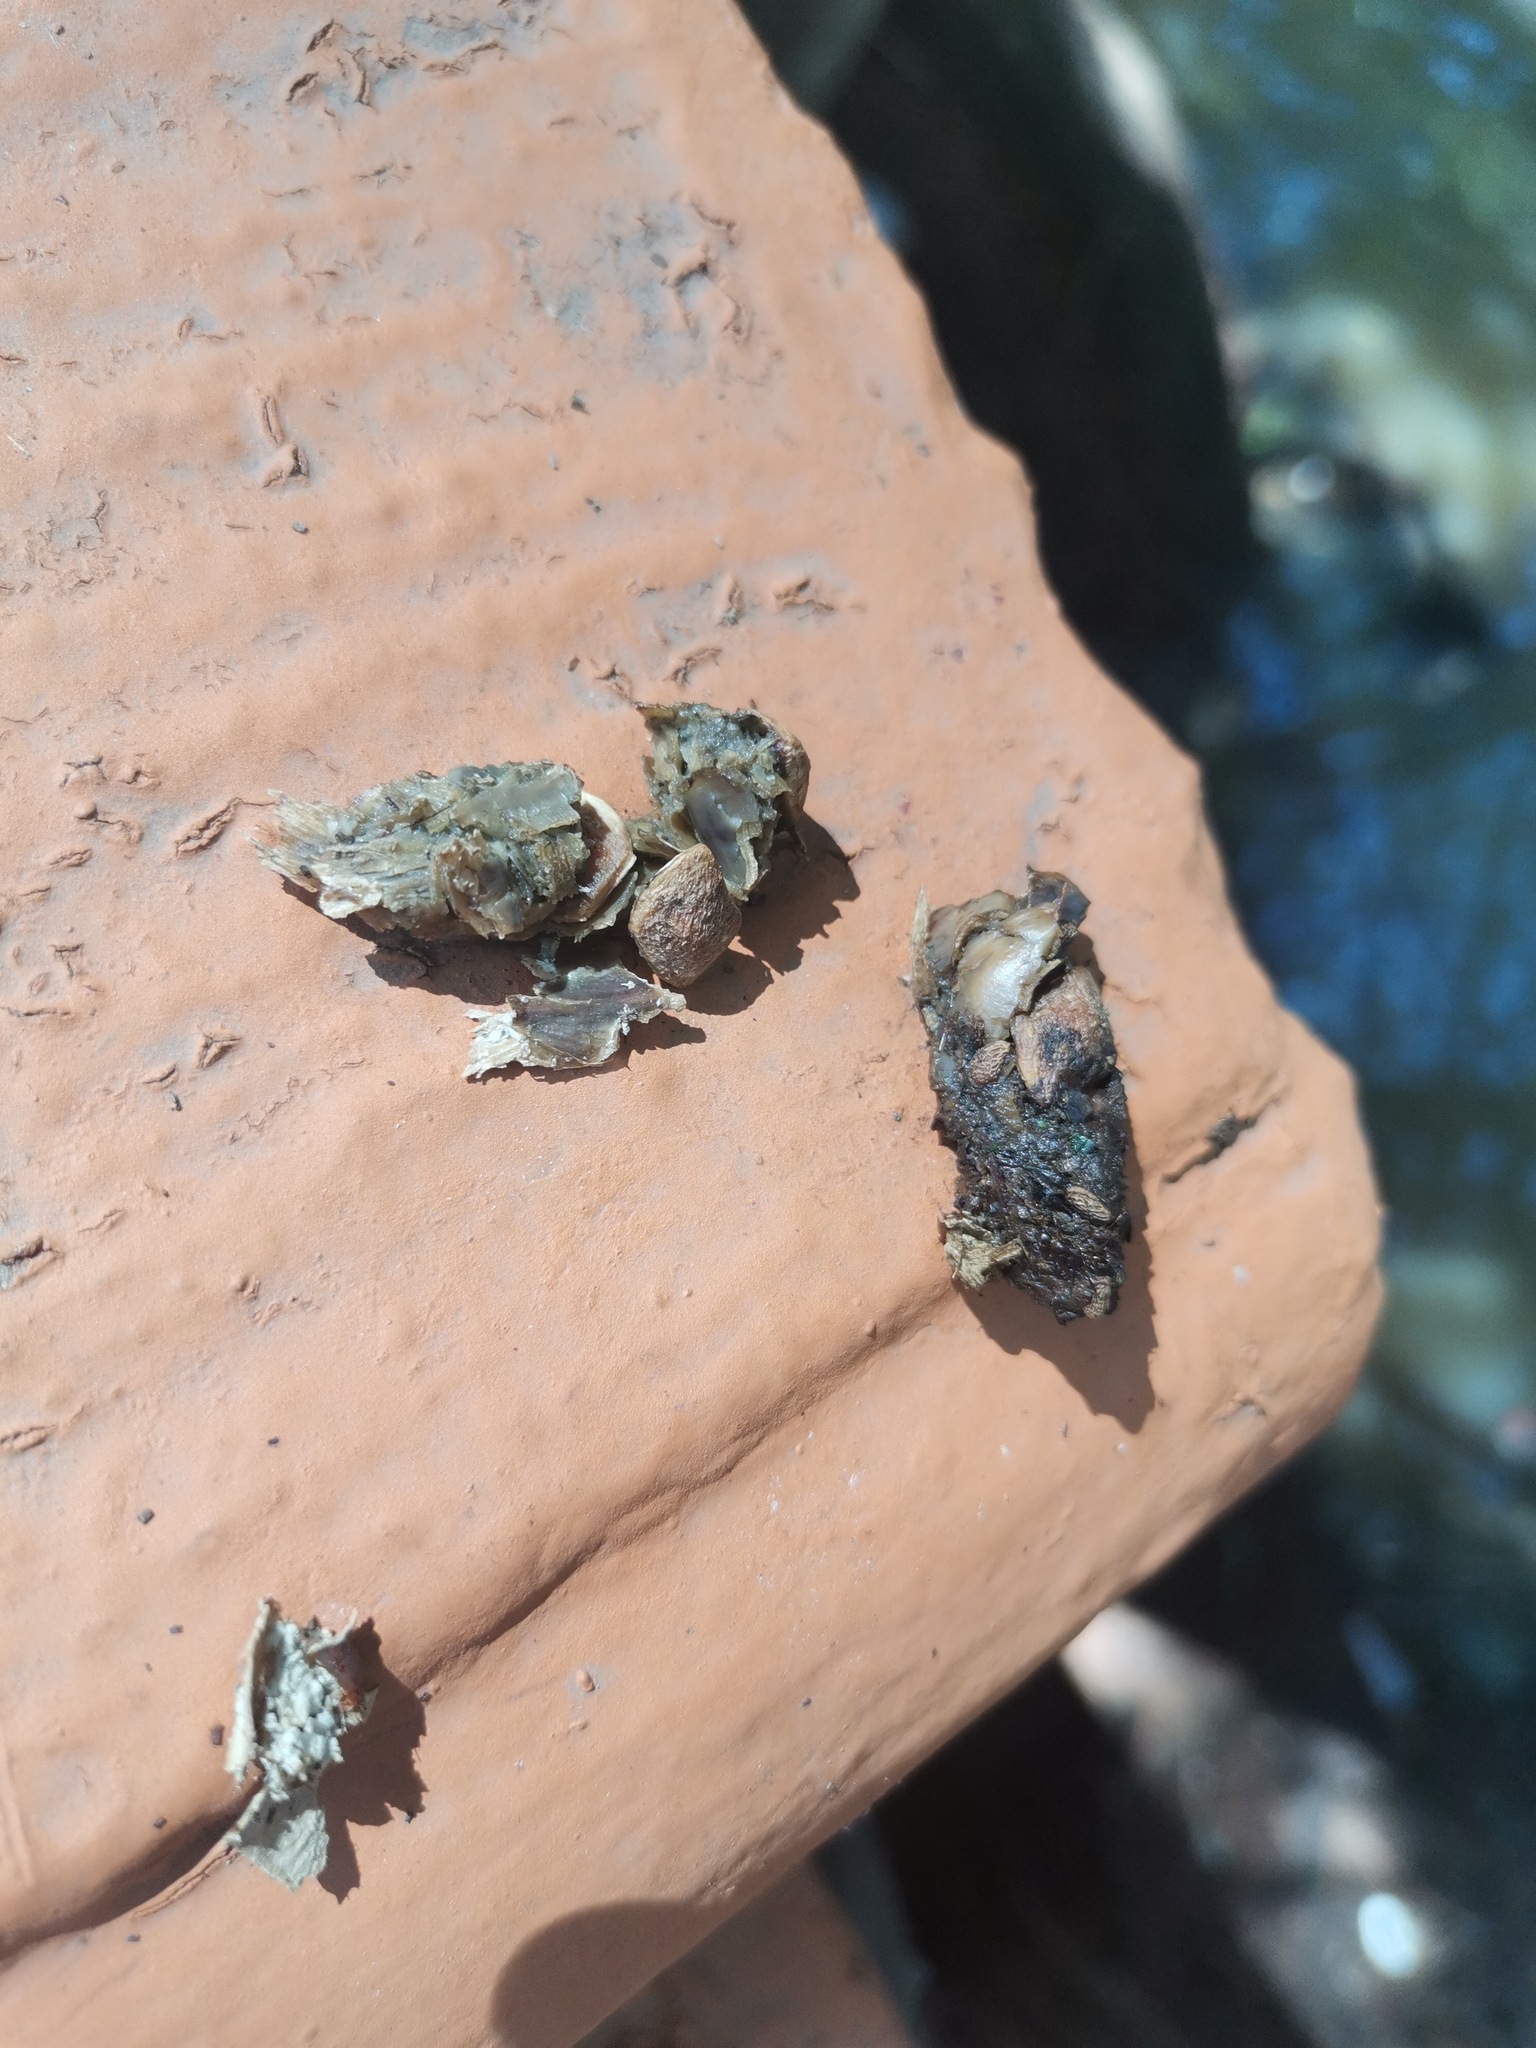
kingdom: Animalia
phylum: Chordata
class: Mammalia
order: Carnivora
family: Procyonidae
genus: Bassariscus
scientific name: Bassariscus astutus
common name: Ringtail
